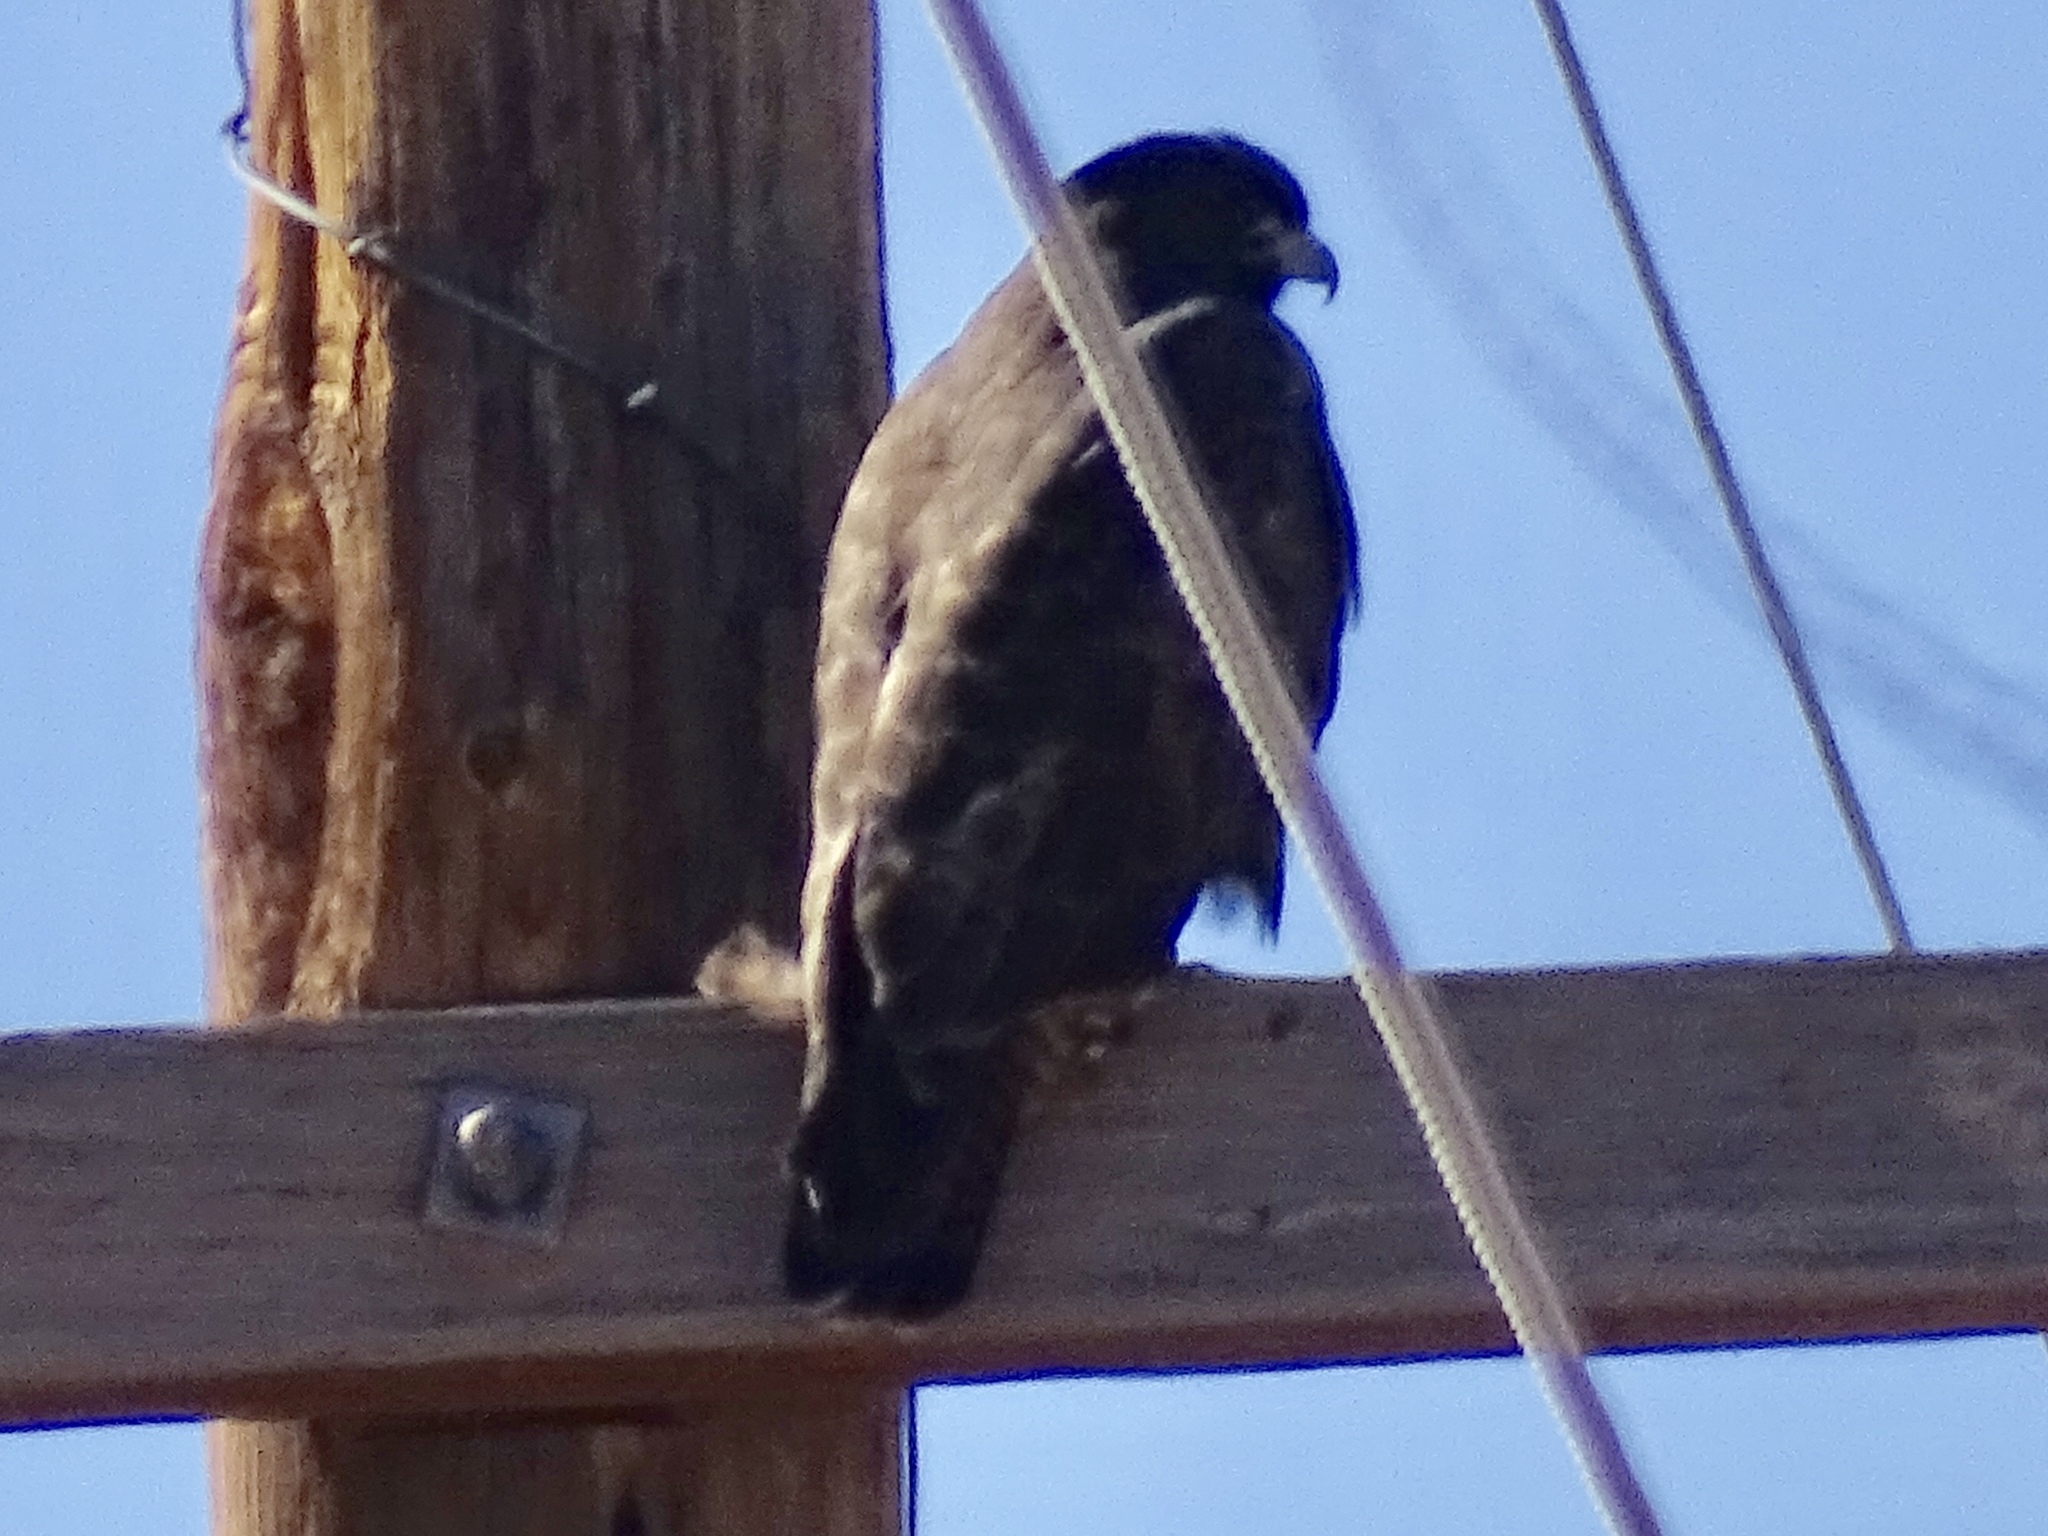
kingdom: Animalia
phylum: Chordata
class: Aves
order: Accipitriformes
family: Accipitridae
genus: Buteo
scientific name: Buteo jamaicensis
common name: Red-tailed hawk
